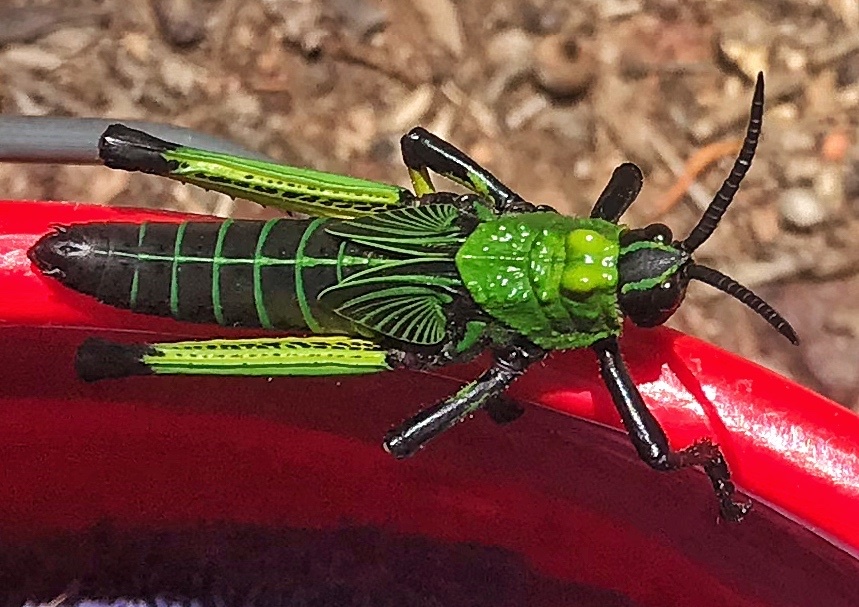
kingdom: Animalia
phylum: Arthropoda
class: Insecta
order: Orthoptera
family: Pyrgomorphidae
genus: Phymateus
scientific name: Phymateus leprosus
